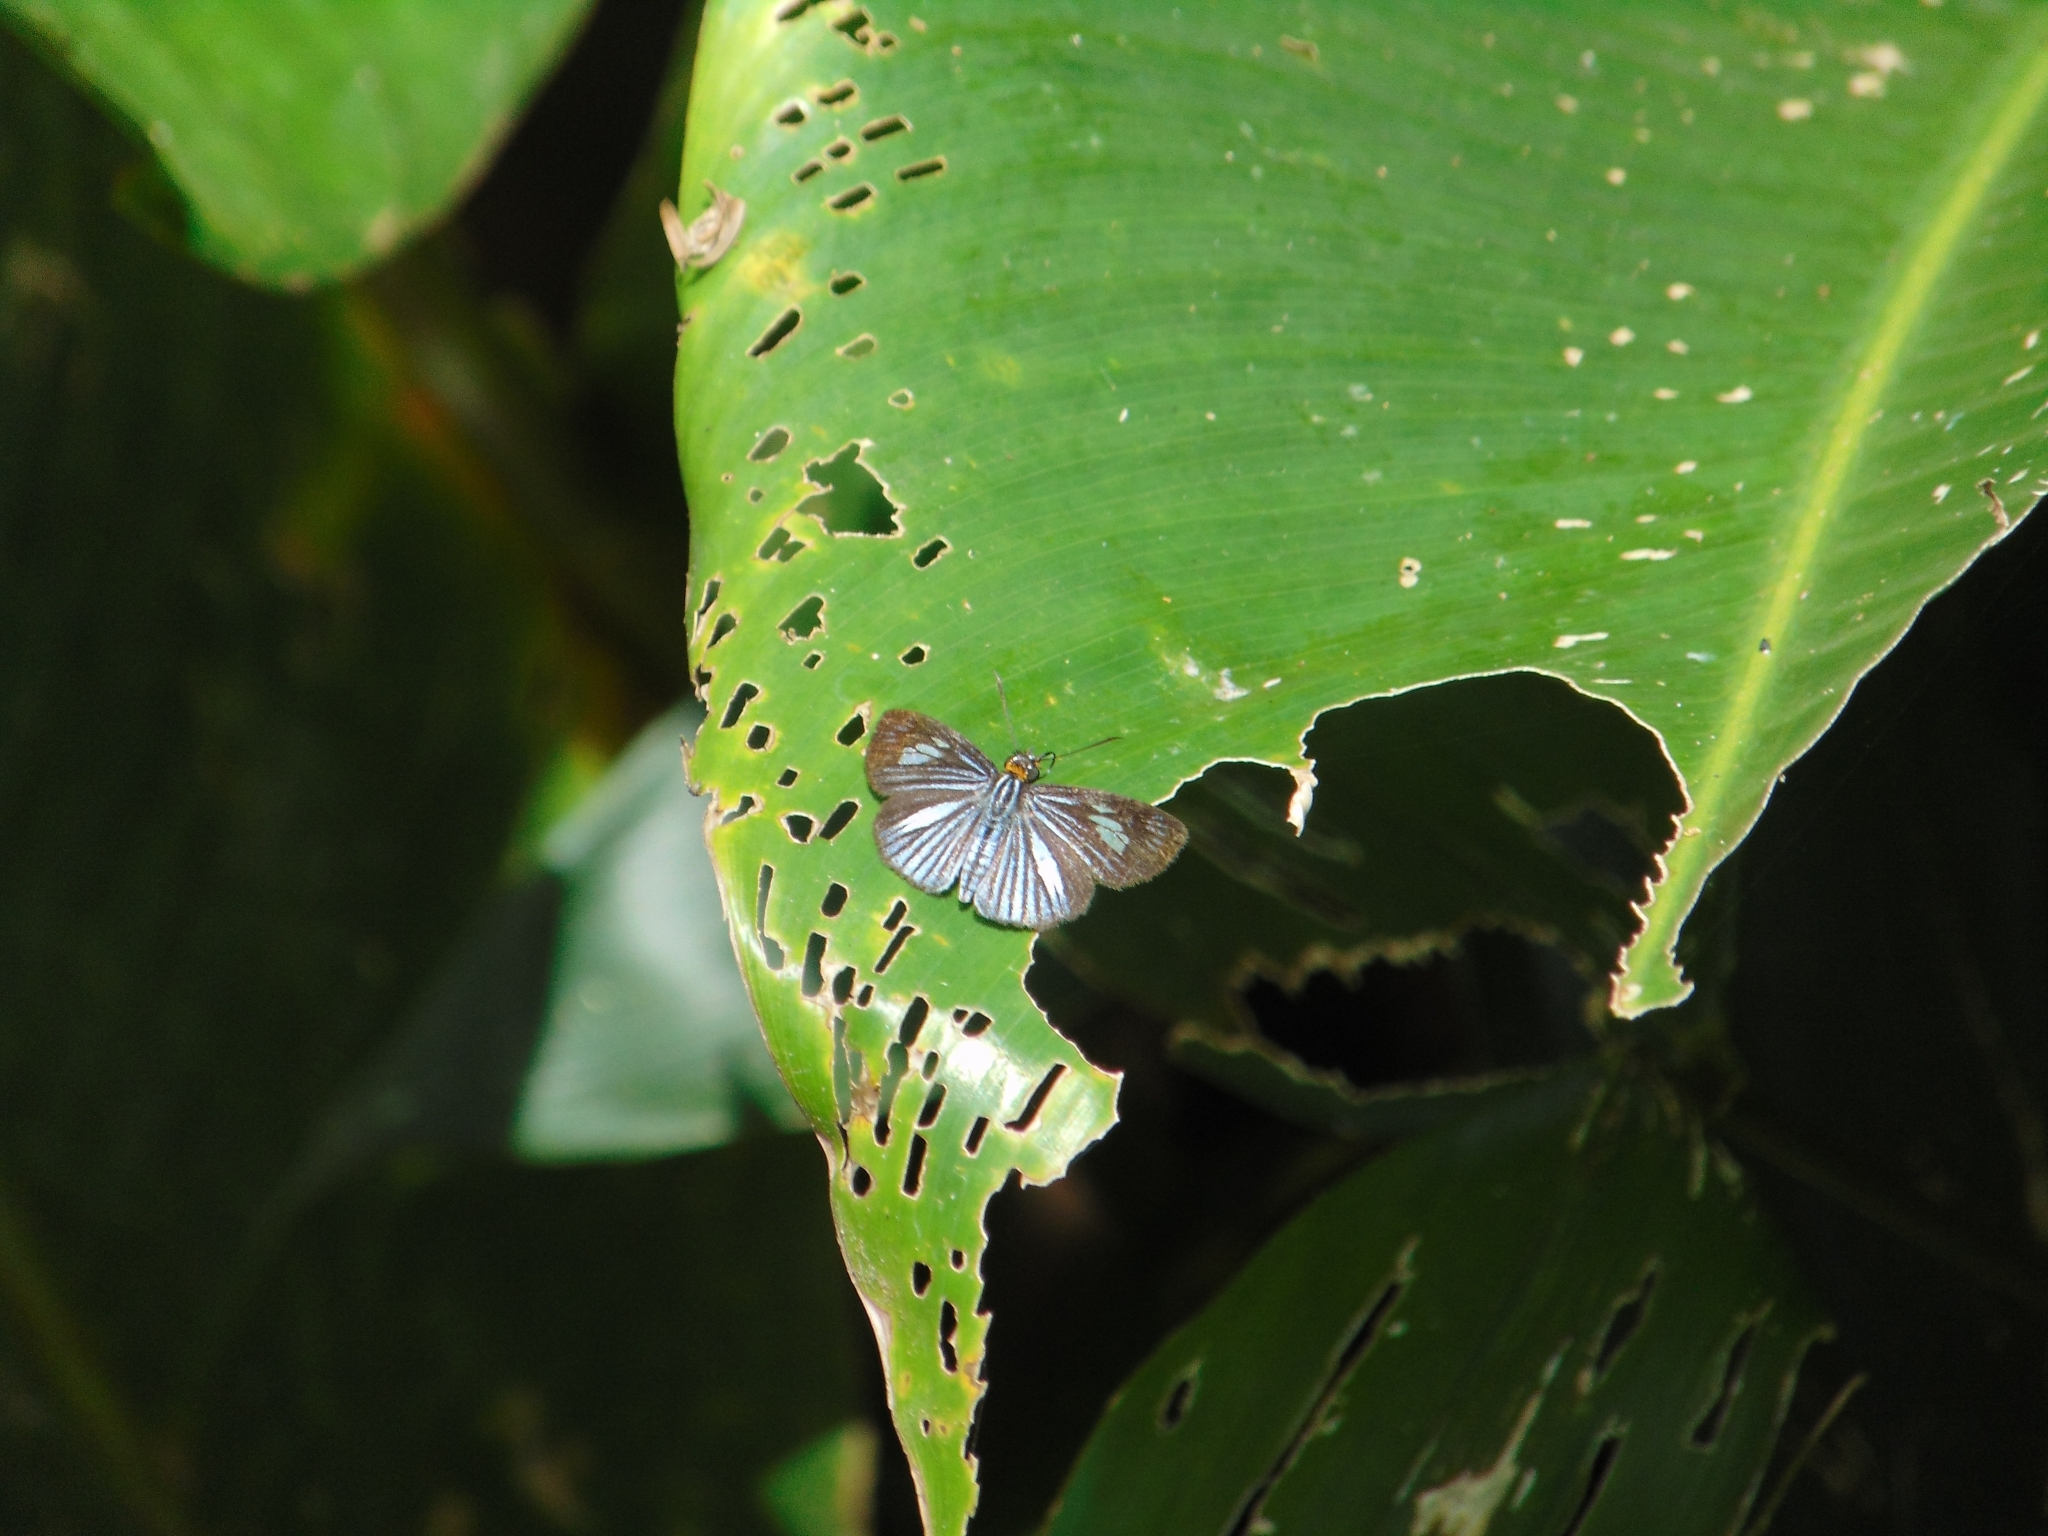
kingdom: Animalia
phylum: Arthropoda
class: Insecta
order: Lepidoptera
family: Hesperiidae
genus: Pythonides
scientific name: Pythonides lancea
